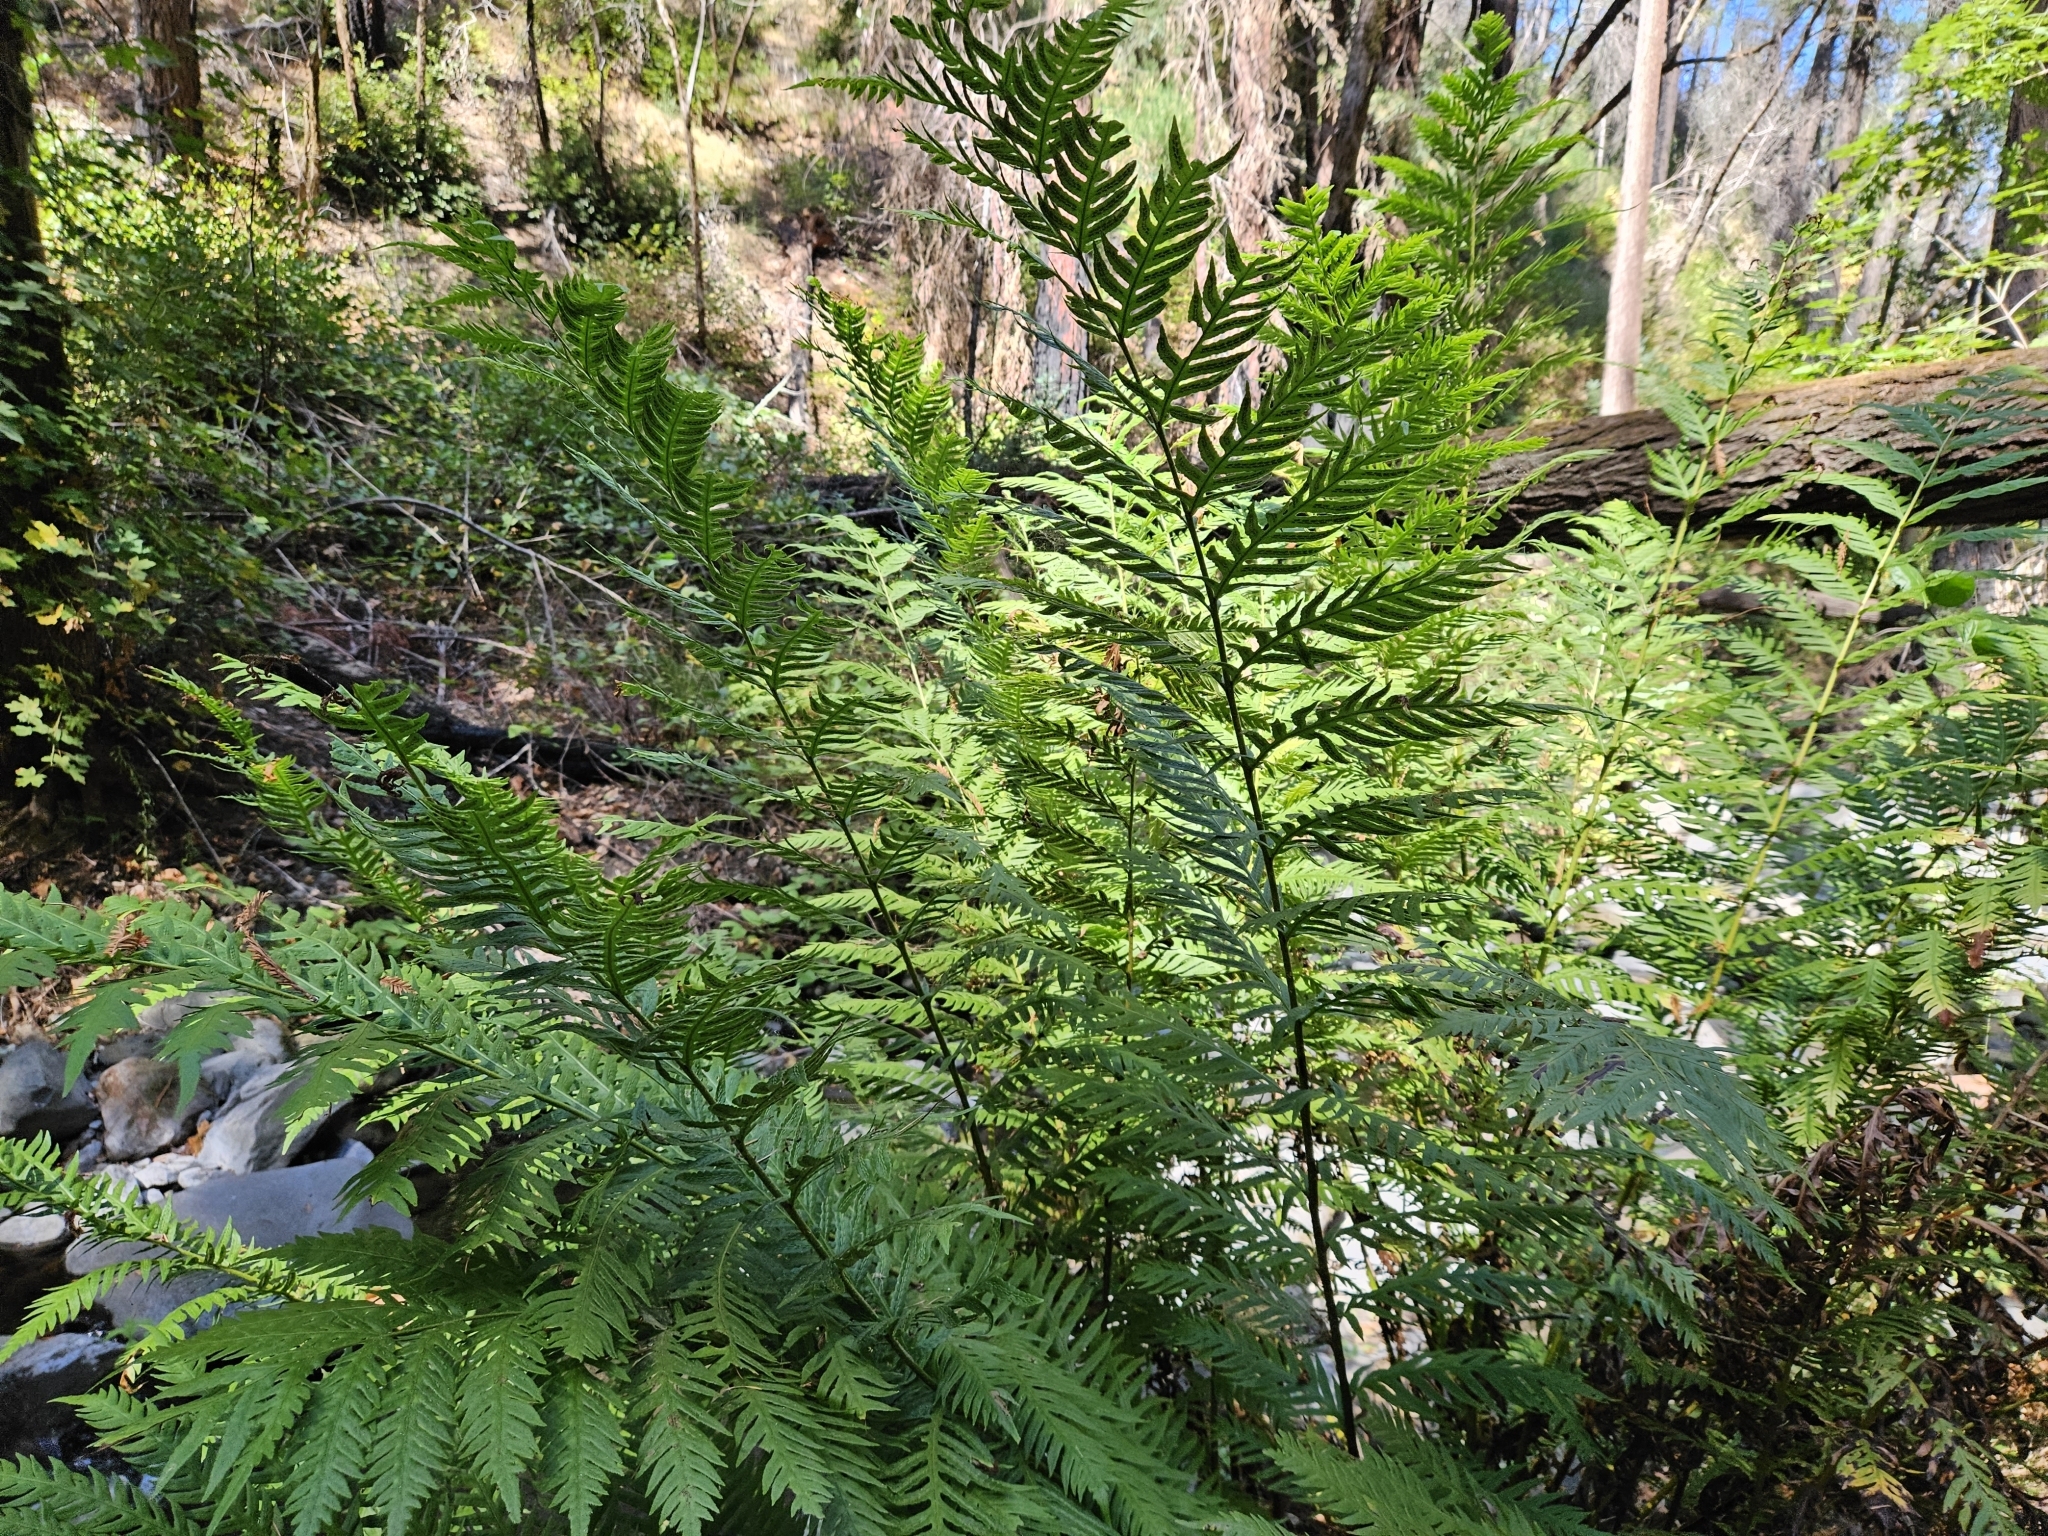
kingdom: Plantae
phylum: Tracheophyta
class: Polypodiopsida
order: Polypodiales
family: Blechnaceae
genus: Woodwardia
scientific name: Woodwardia fimbriata
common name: Giant chain fern
